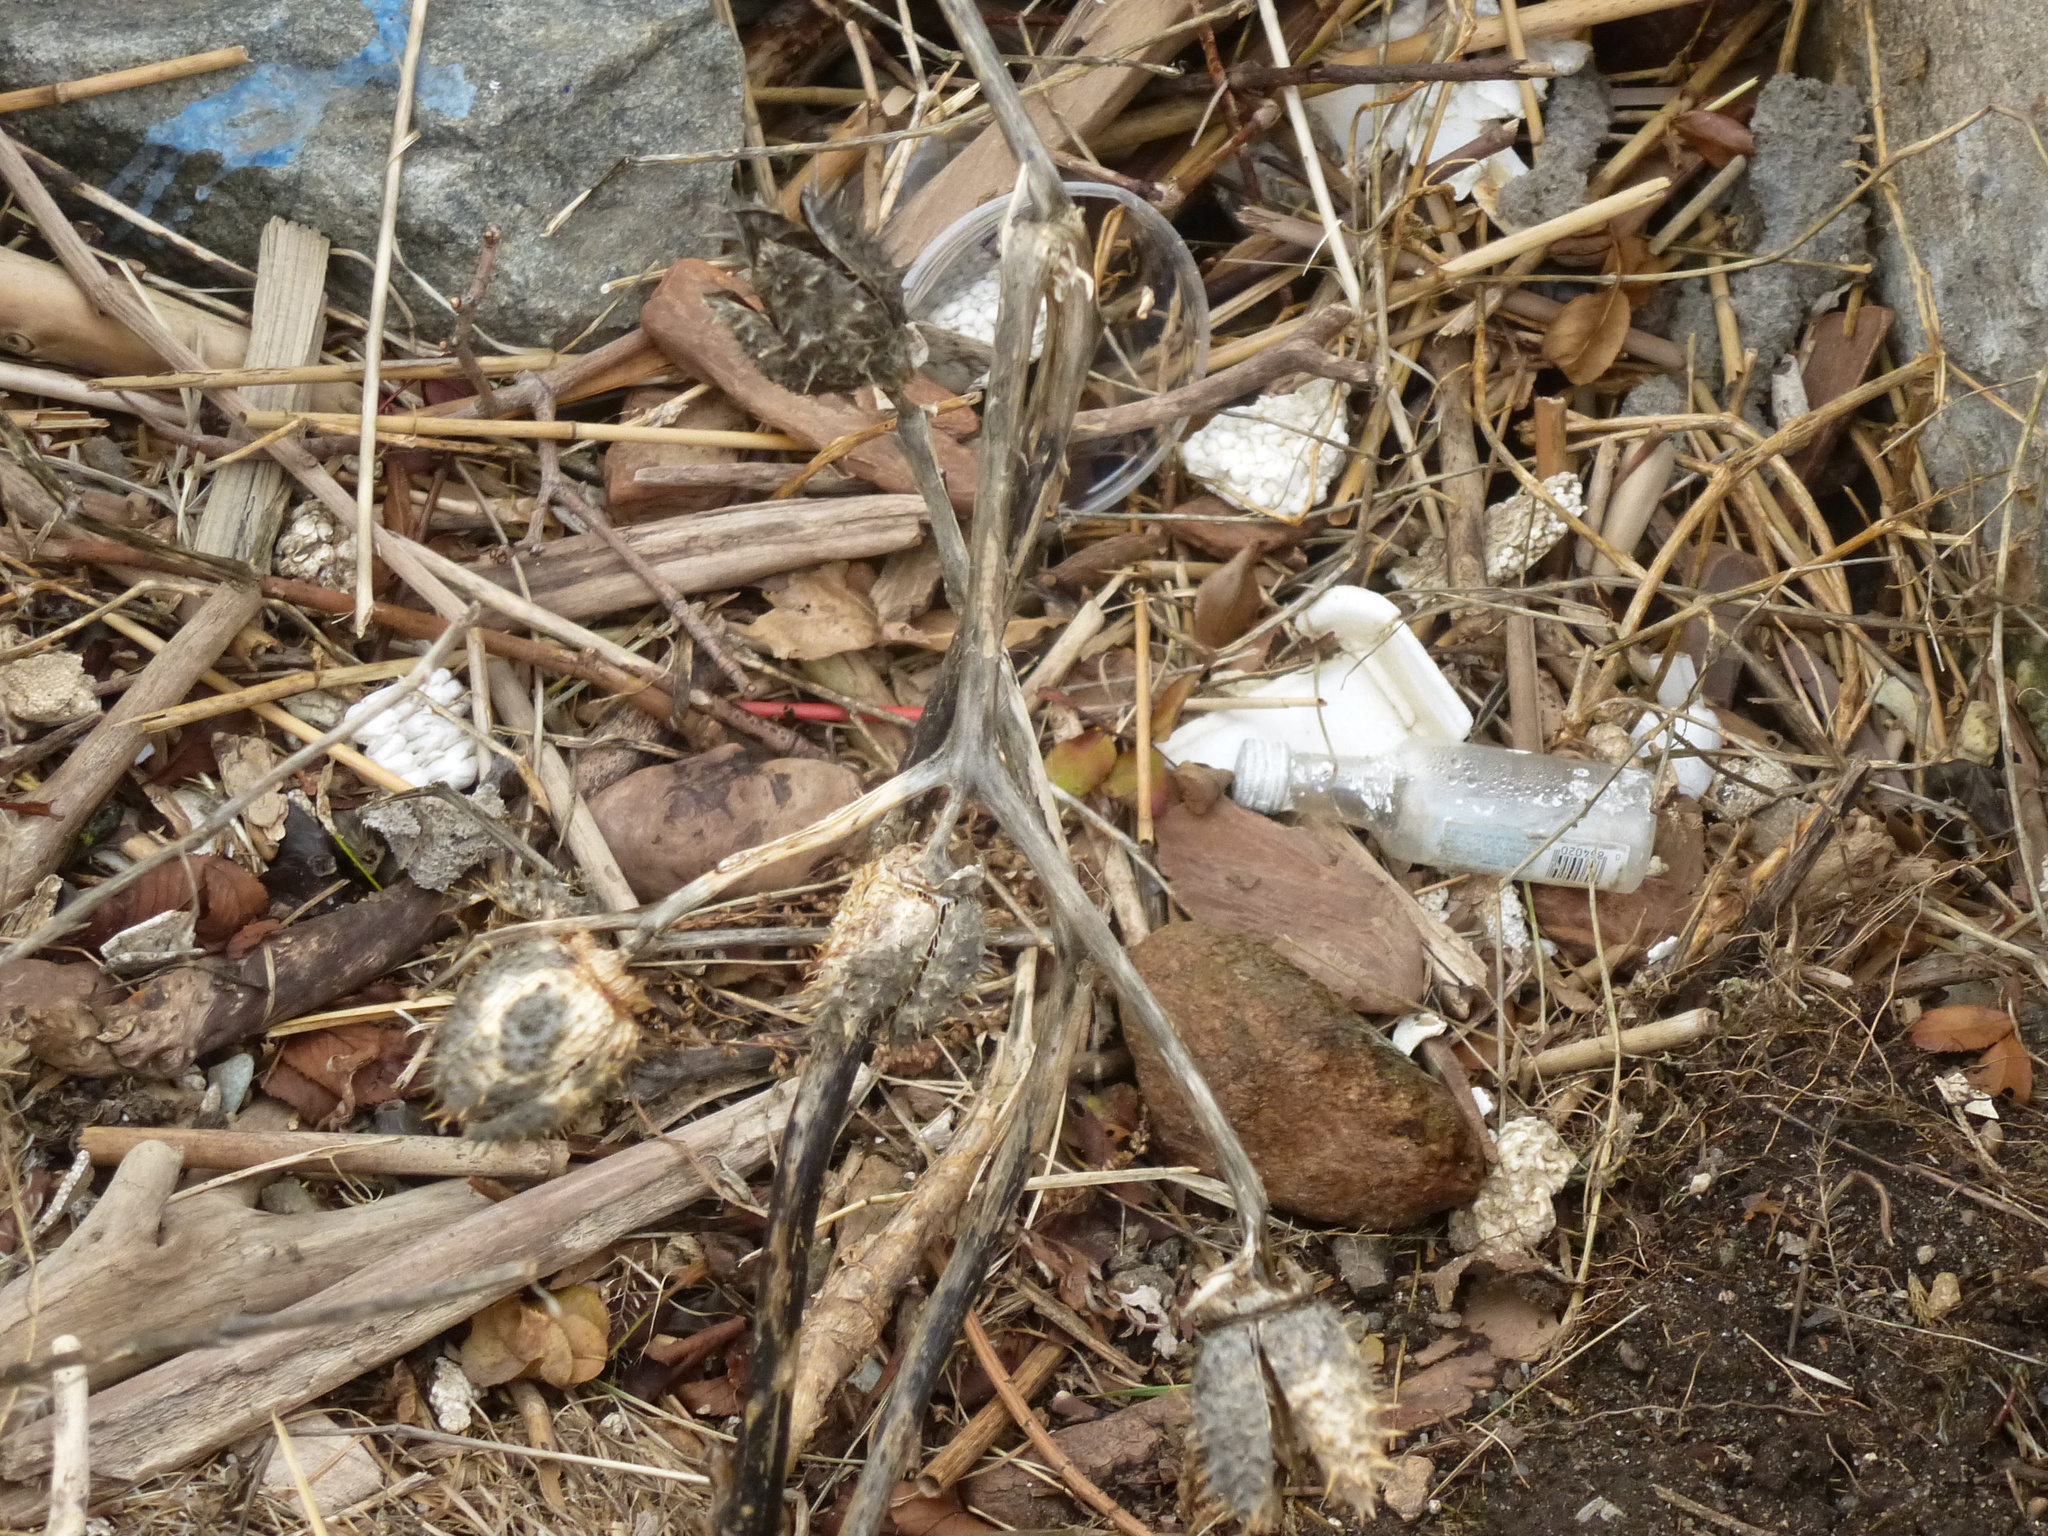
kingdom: Plantae
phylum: Tracheophyta
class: Magnoliopsida
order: Solanales
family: Solanaceae
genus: Datura
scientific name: Datura stramonium
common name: Thorn-apple
